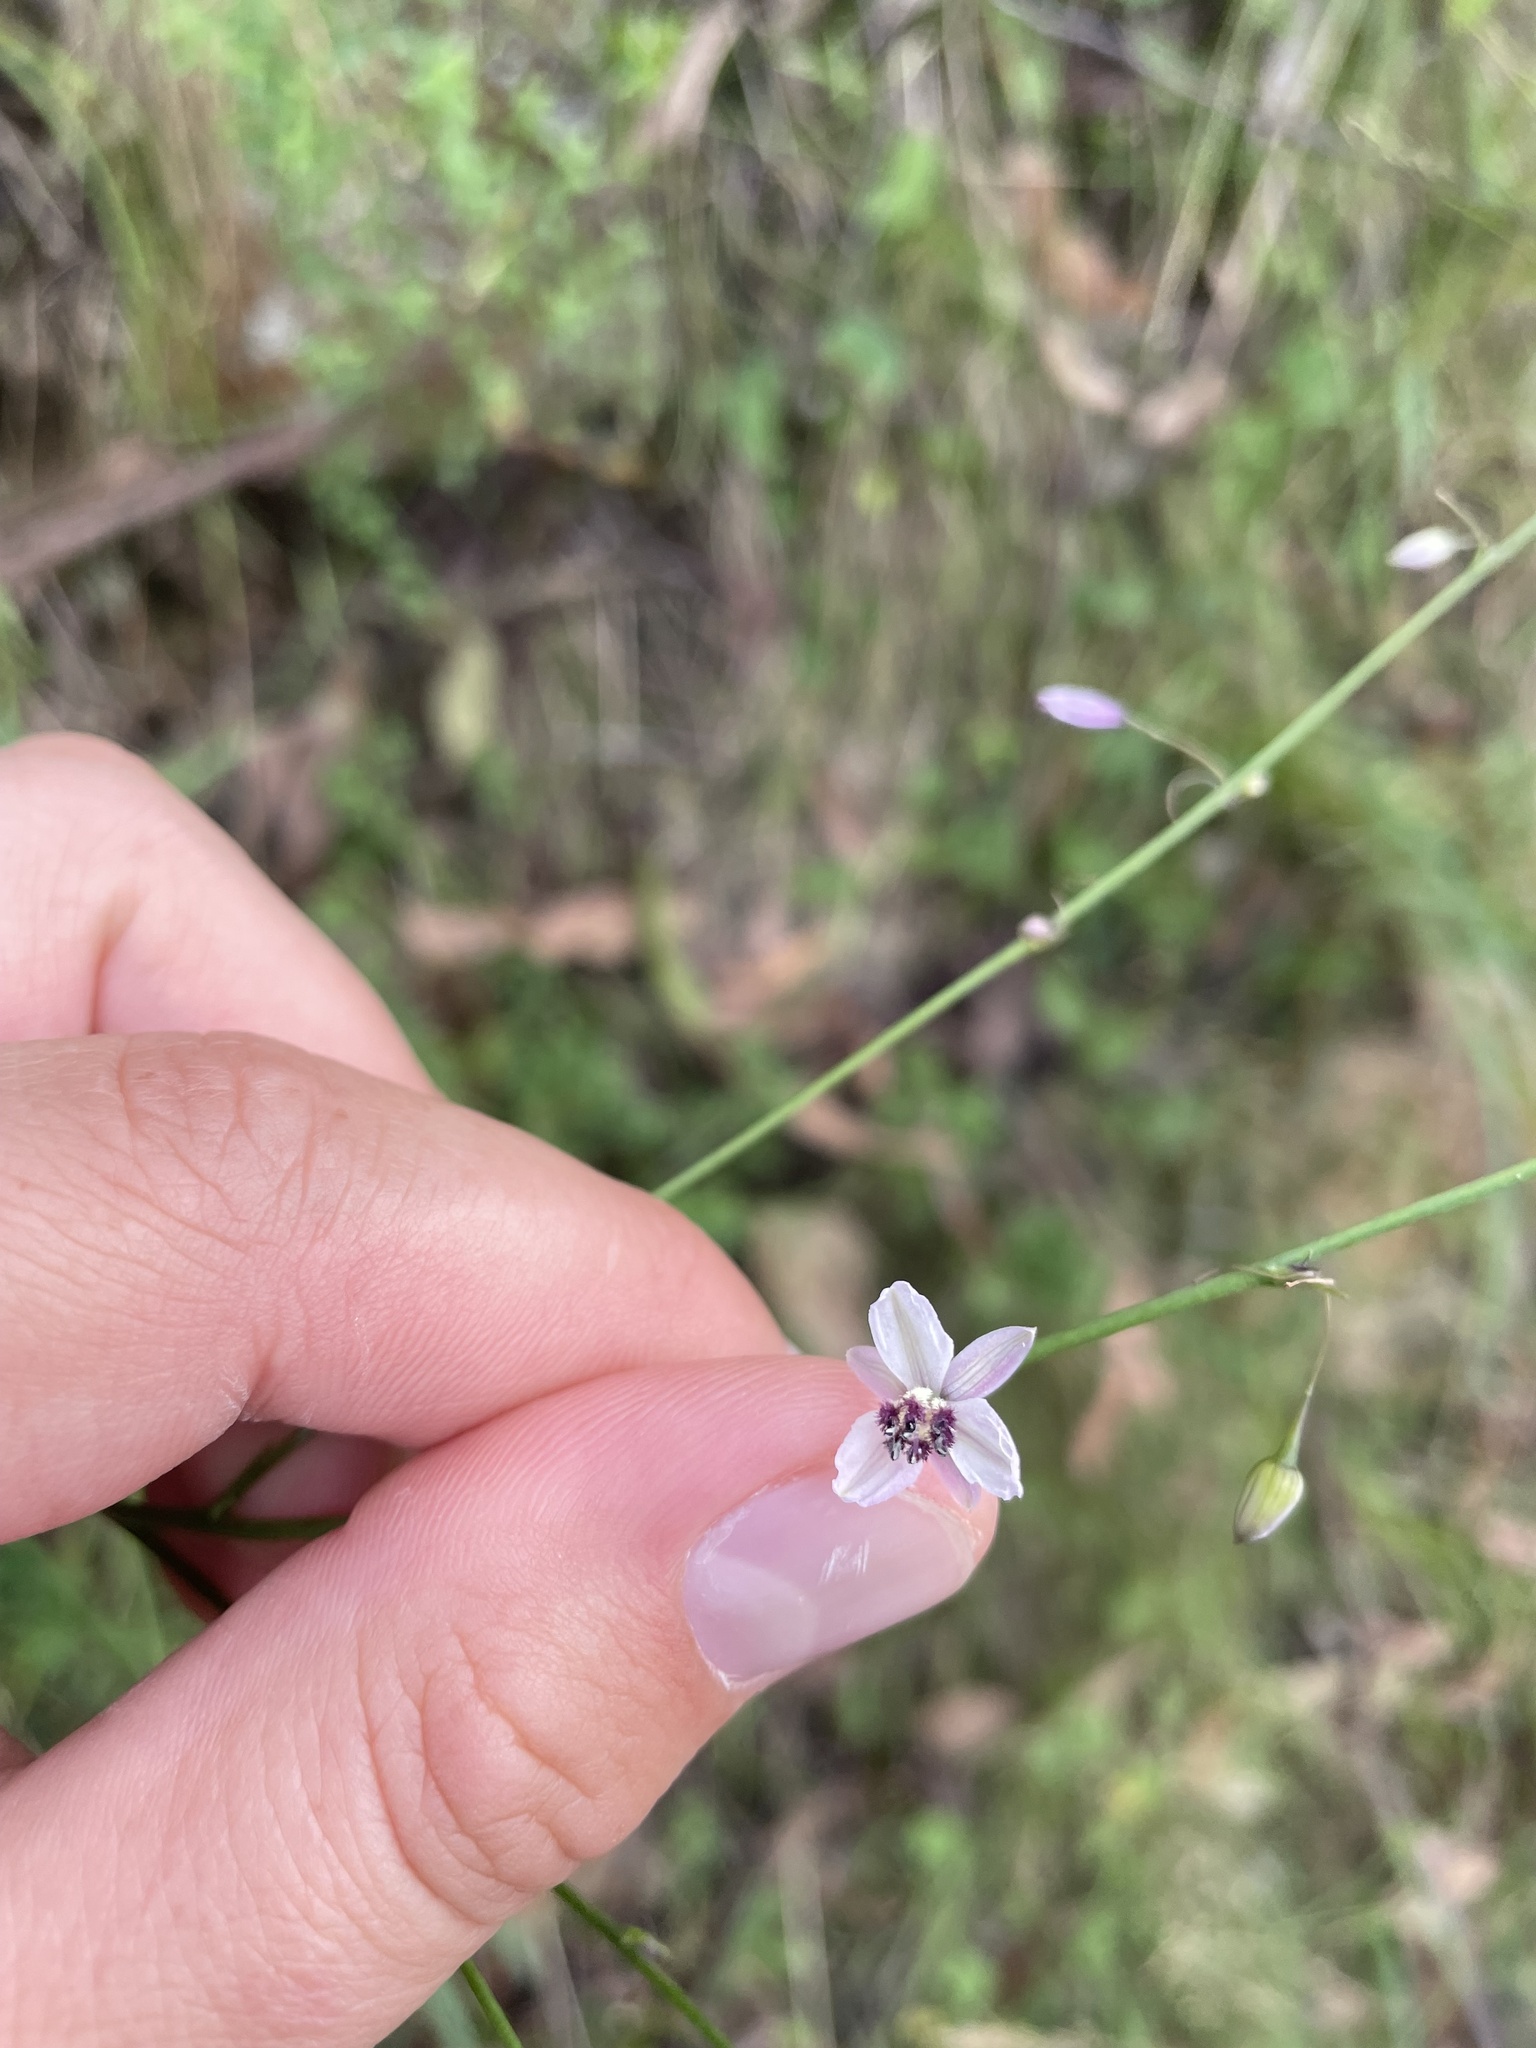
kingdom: Plantae
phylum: Tracheophyta
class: Liliopsida
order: Asparagales
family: Asparagaceae
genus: Arthropodium
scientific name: Arthropodium milleflorum
